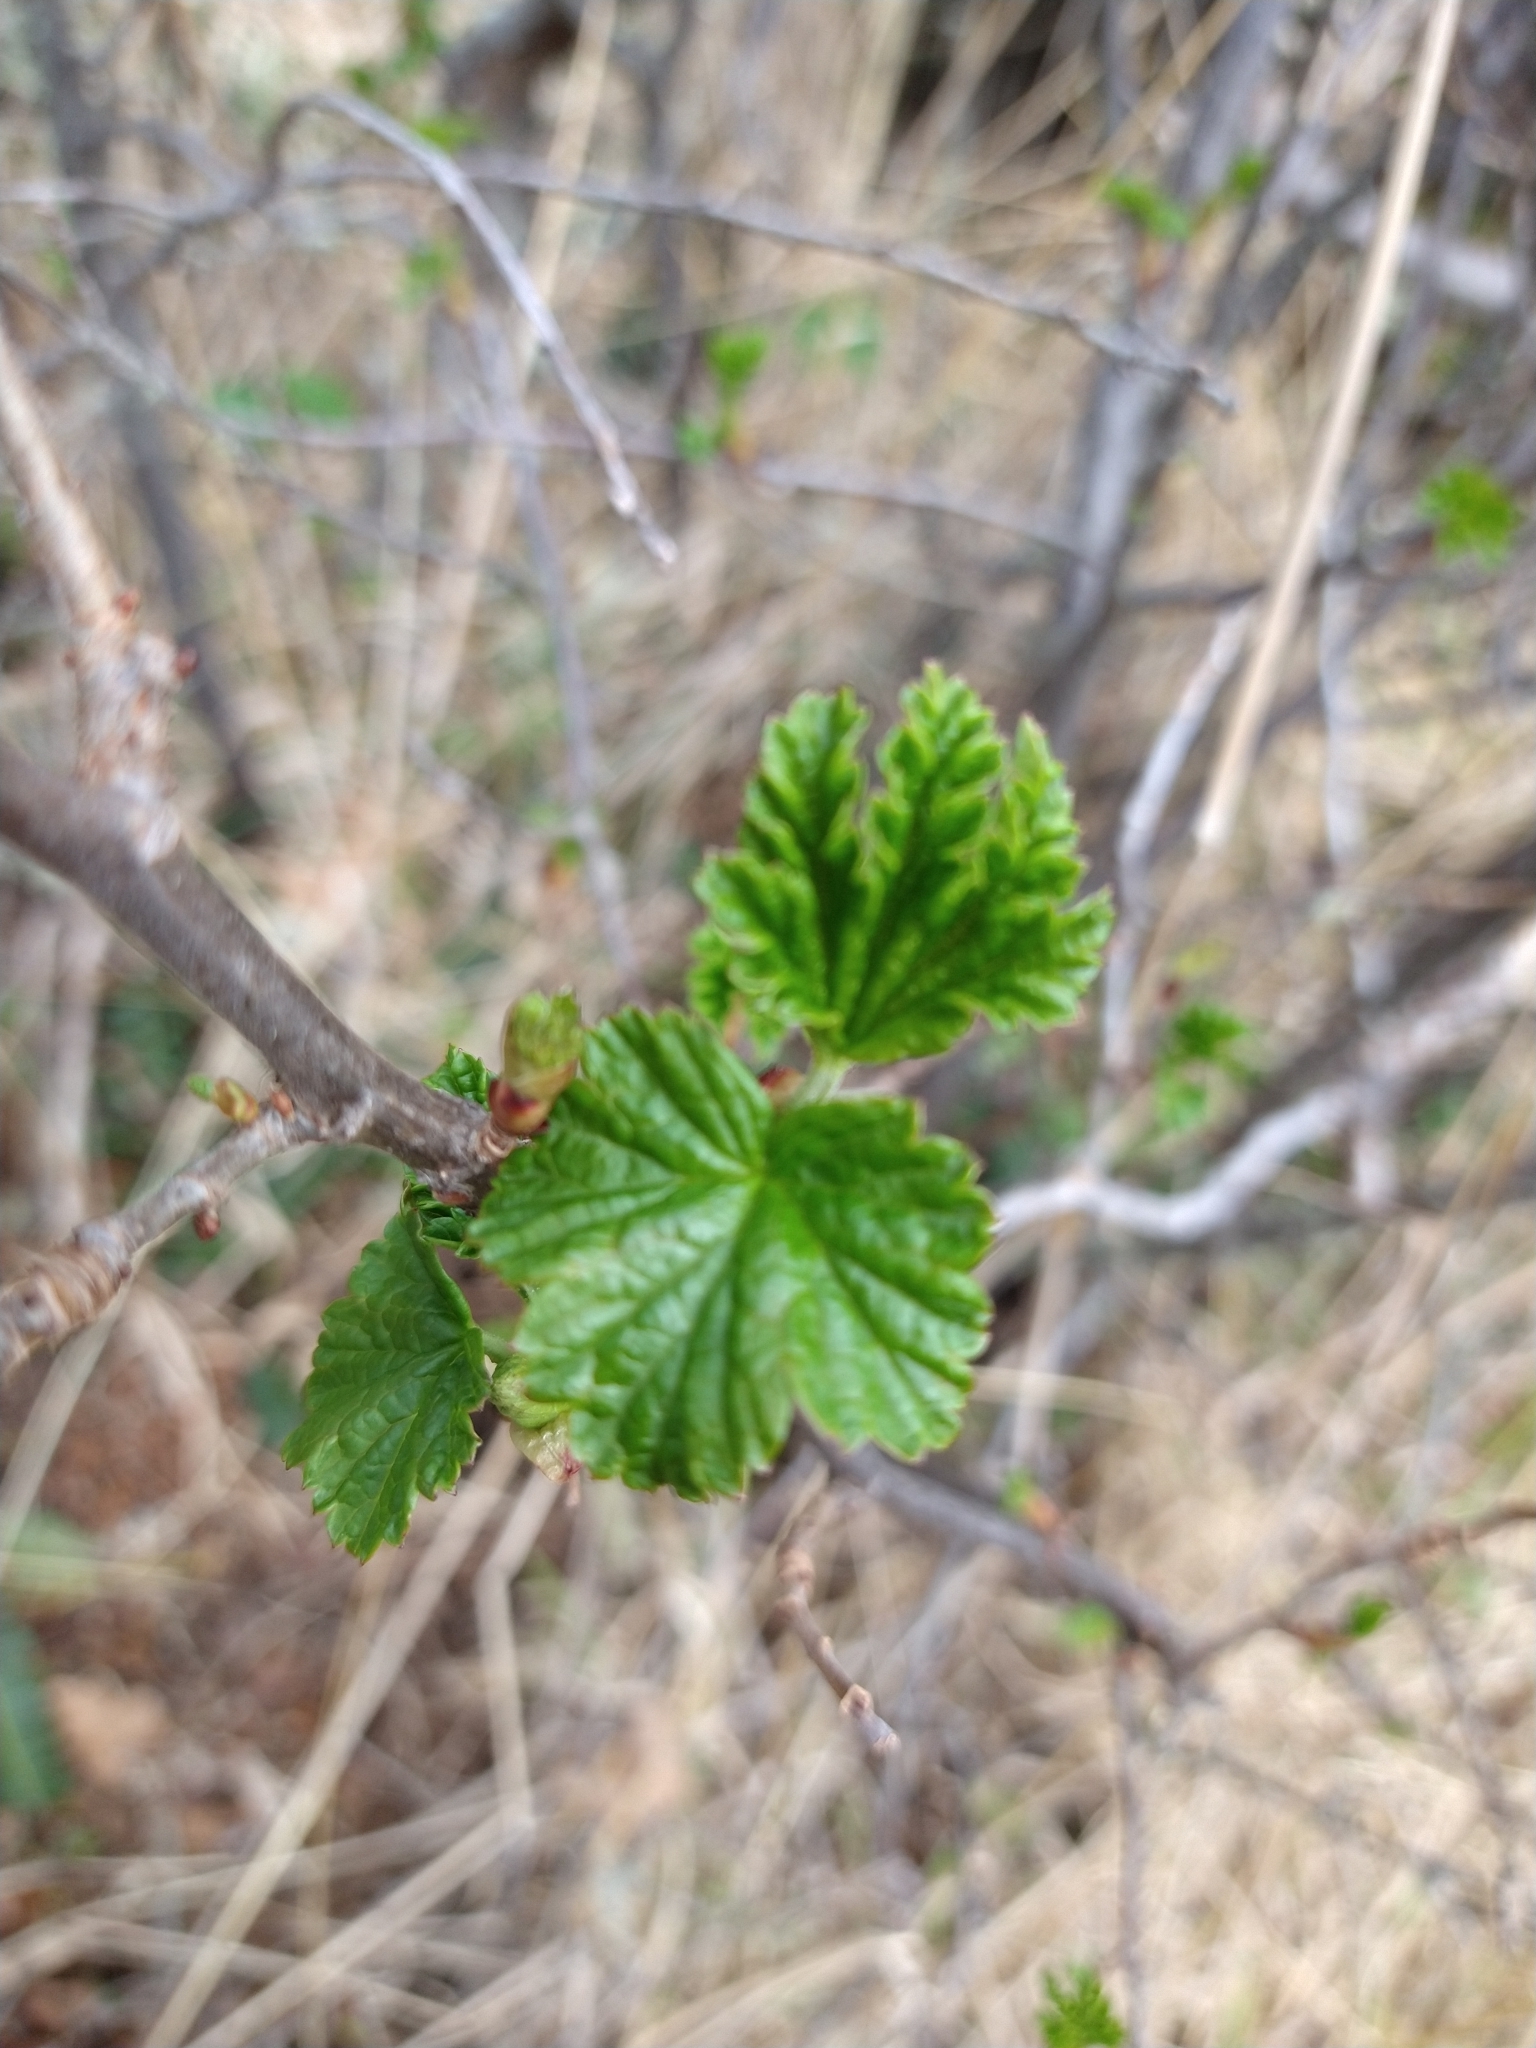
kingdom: Plantae
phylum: Tracheophyta
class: Magnoliopsida
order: Saxifragales
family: Grossulariaceae
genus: Ribes
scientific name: Ribes magellanicum
